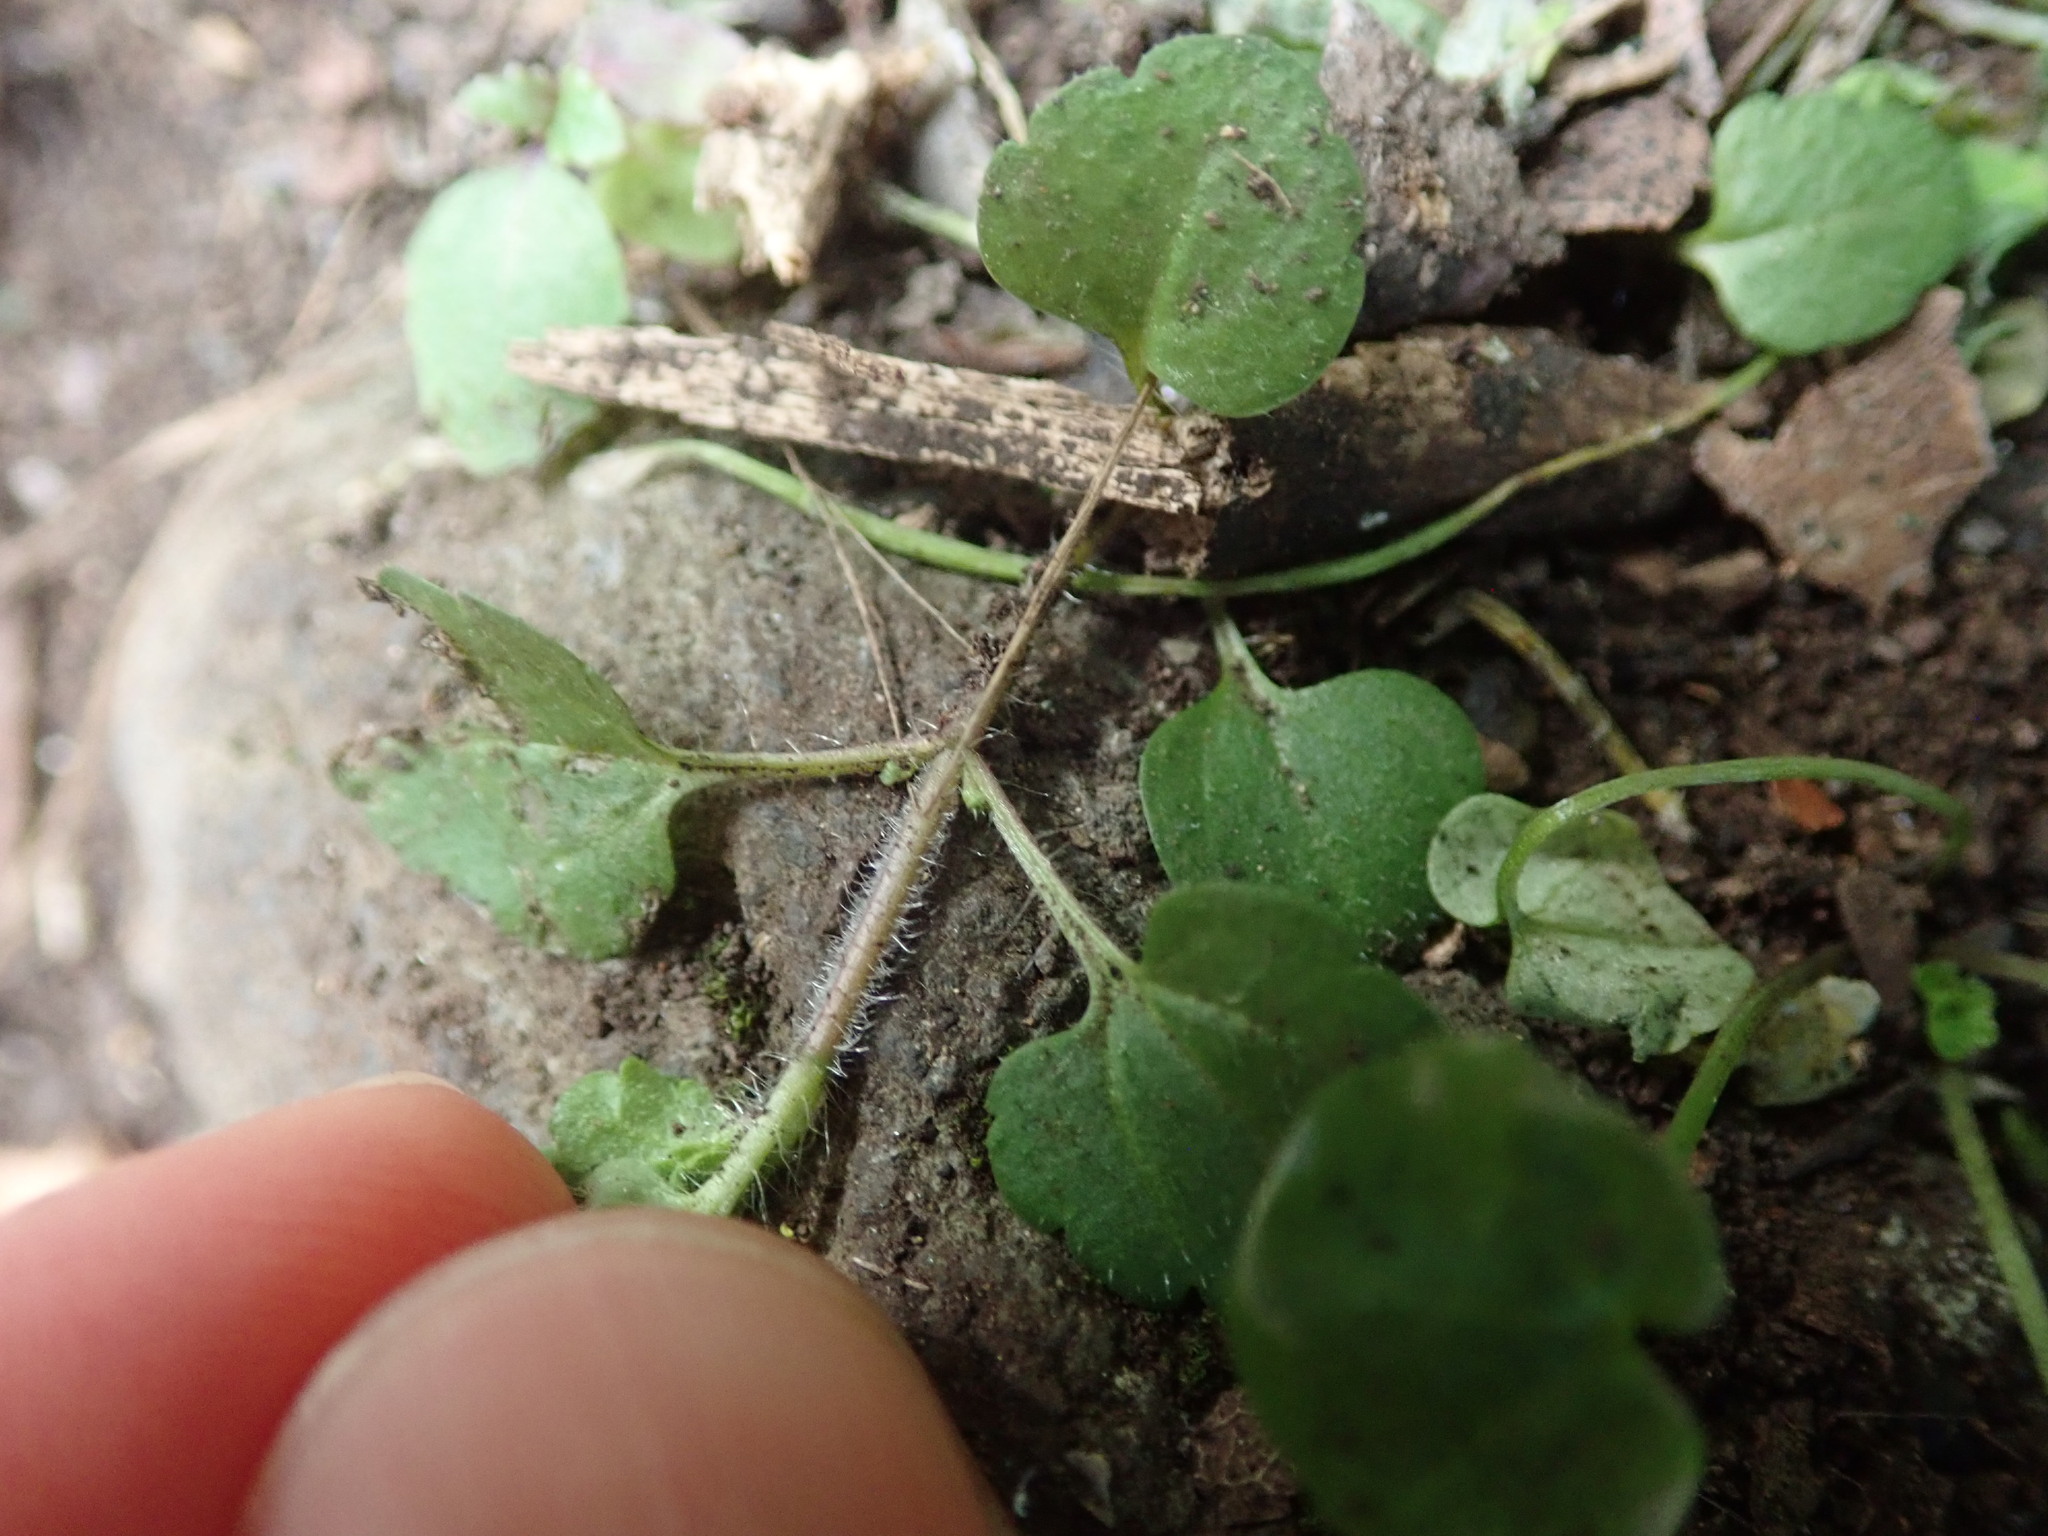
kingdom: Plantae
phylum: Tracheophyta
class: Magnoliopsida
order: Lamiales
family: Plantaginaceae
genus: Veronica
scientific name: Veronica arvensis
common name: Corn speedwell
